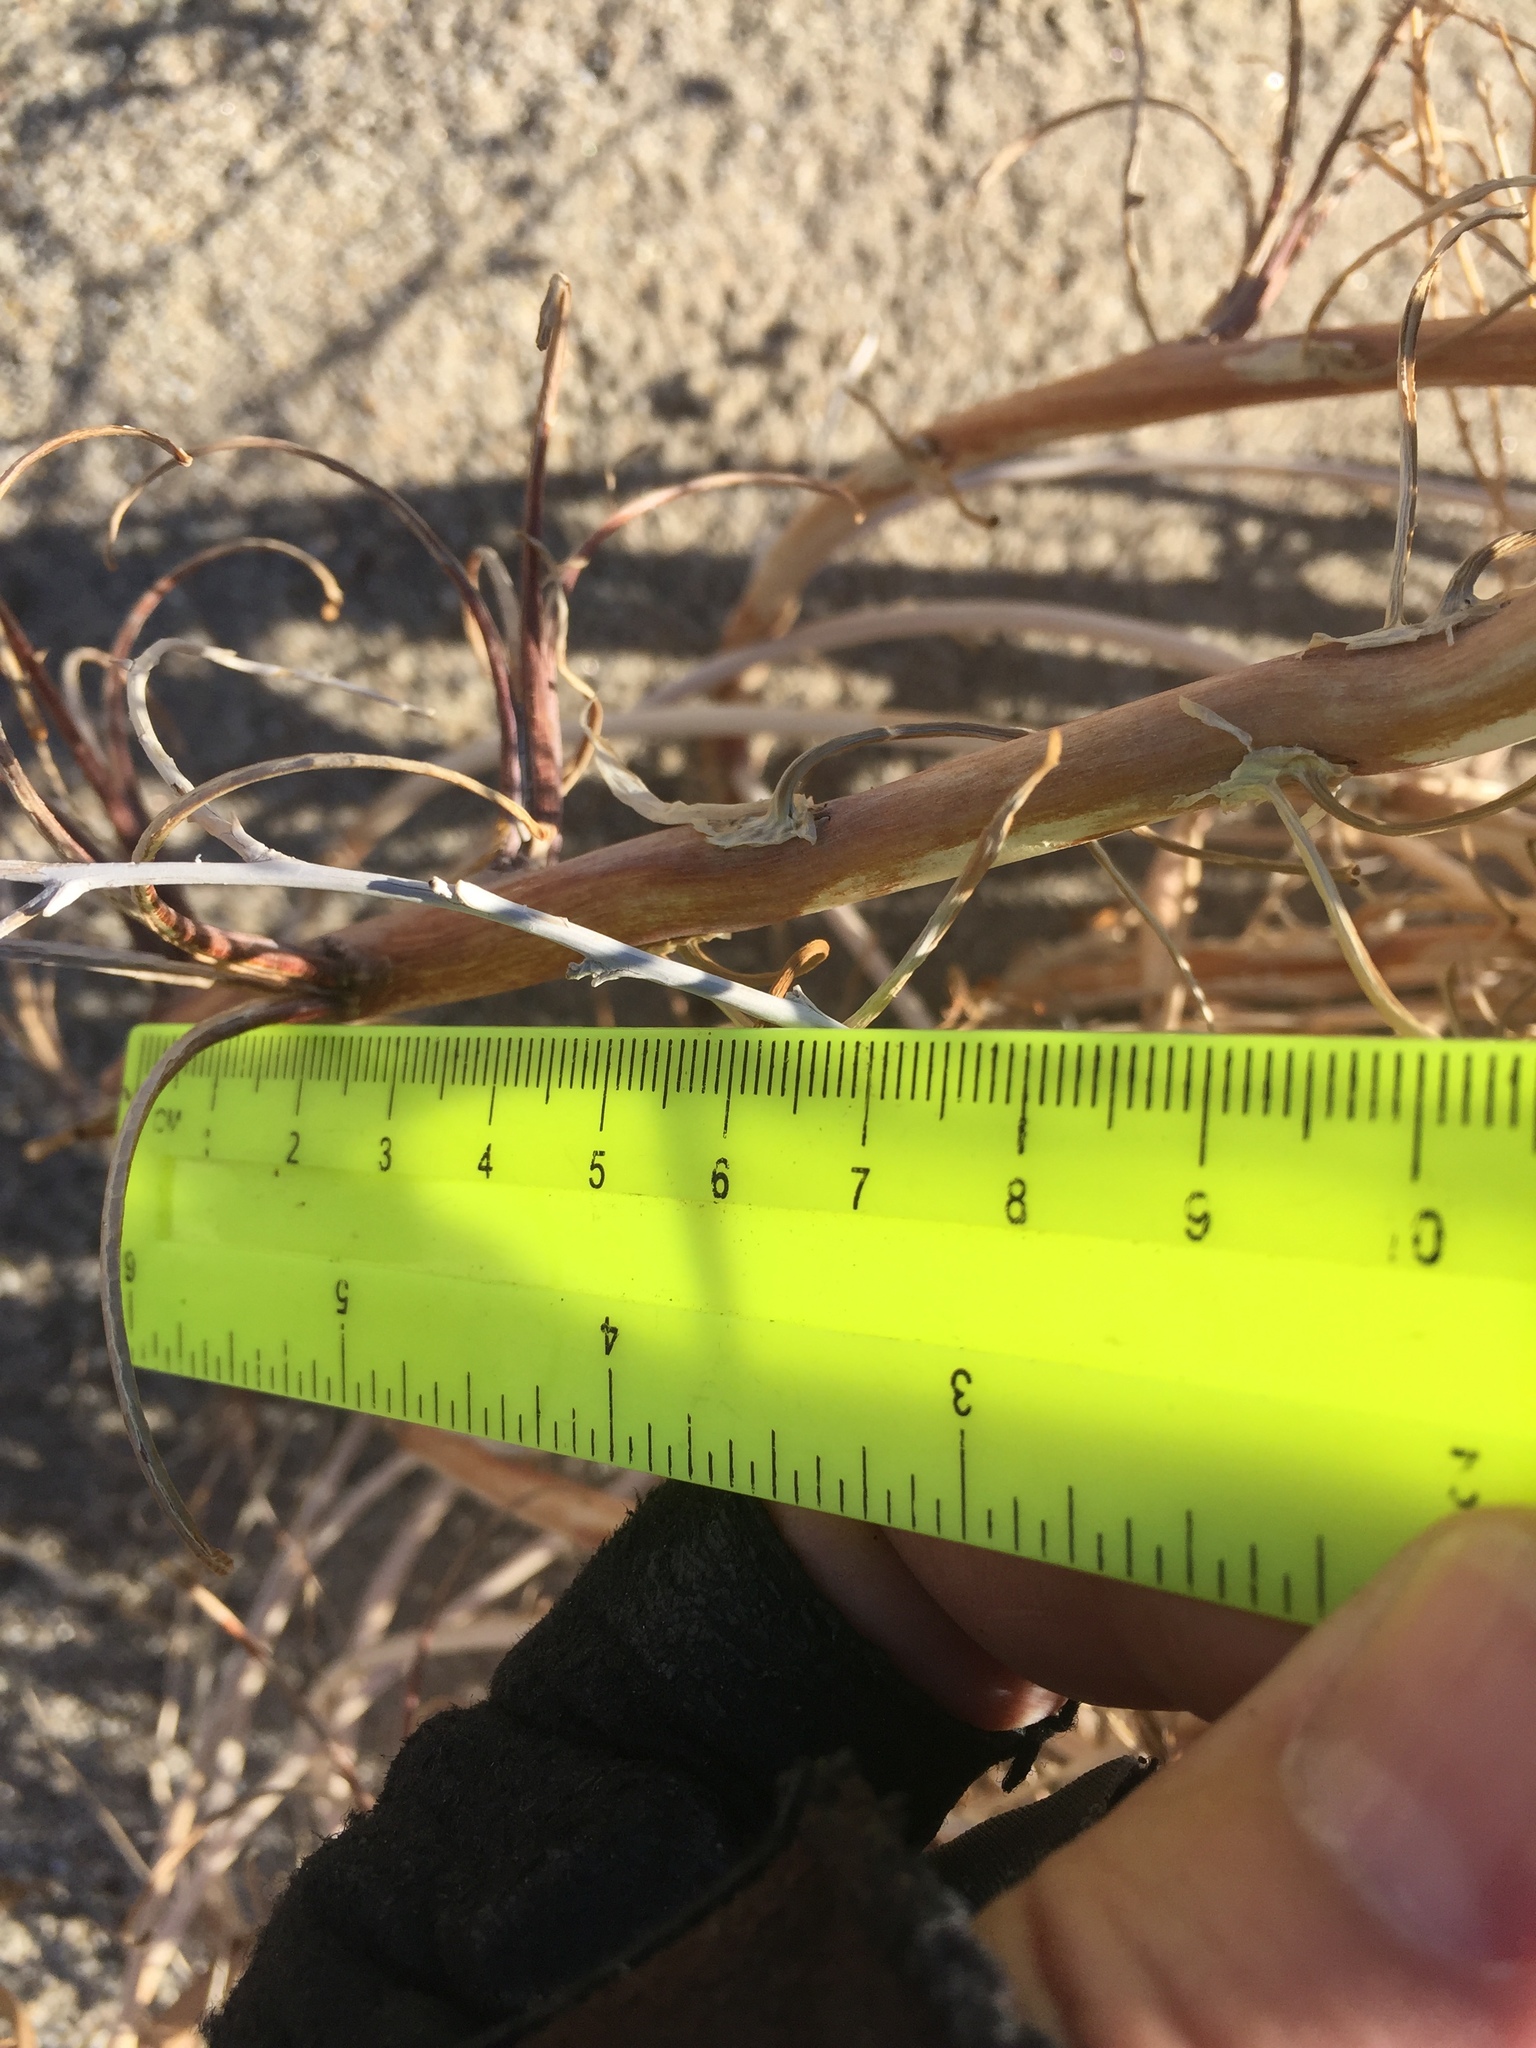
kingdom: Plantae
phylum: Tracheophyta
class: Magnoliopsida
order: Myrtales
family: Onagraceae
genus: Oenothera
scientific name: Oenothera deltoides
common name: Basket evening-primrose
